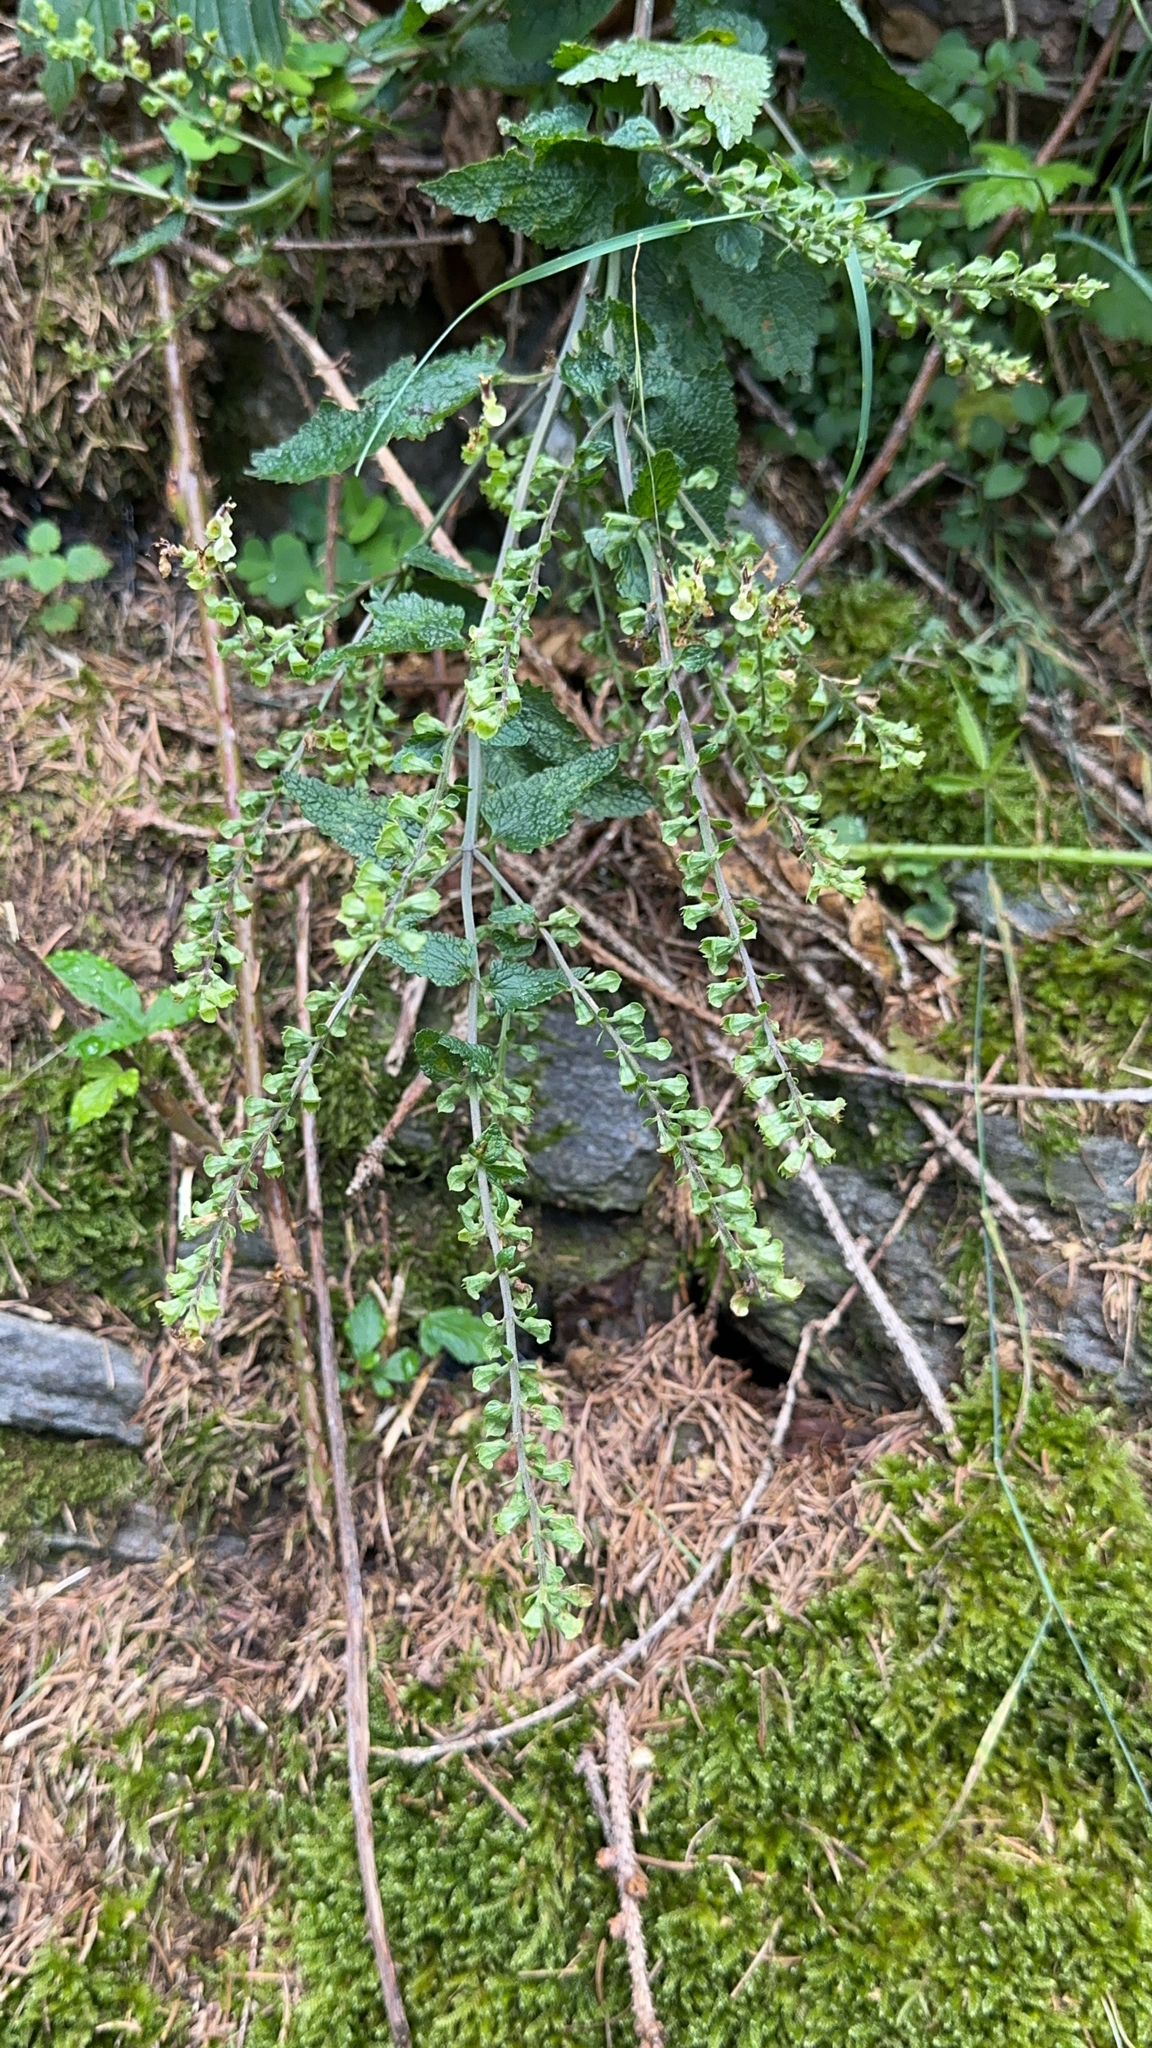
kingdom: Plantae
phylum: Tracheophyta
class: Magnoliopsida
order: Lamiales
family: Lamiaceae
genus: Teucrium
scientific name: Teucrium scorodonia
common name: Woodland germander
